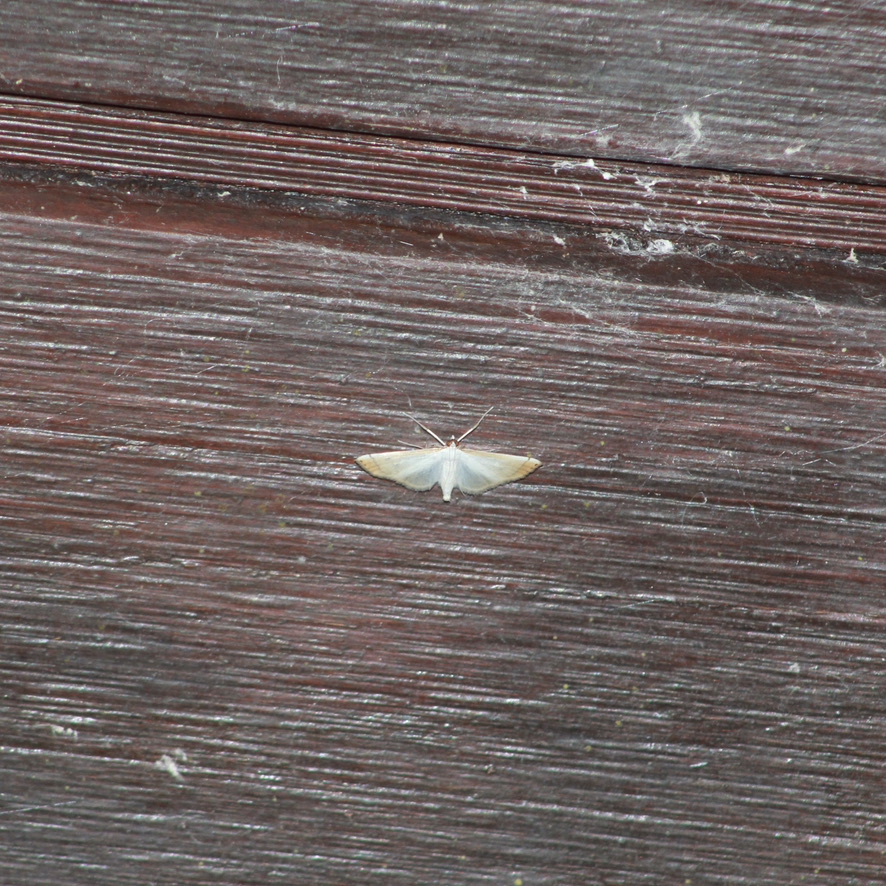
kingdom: Animalia
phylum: Arthropoda
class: Insecta
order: Lepidoptera
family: Crambidae
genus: Stenia
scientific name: Stenia saurialis
